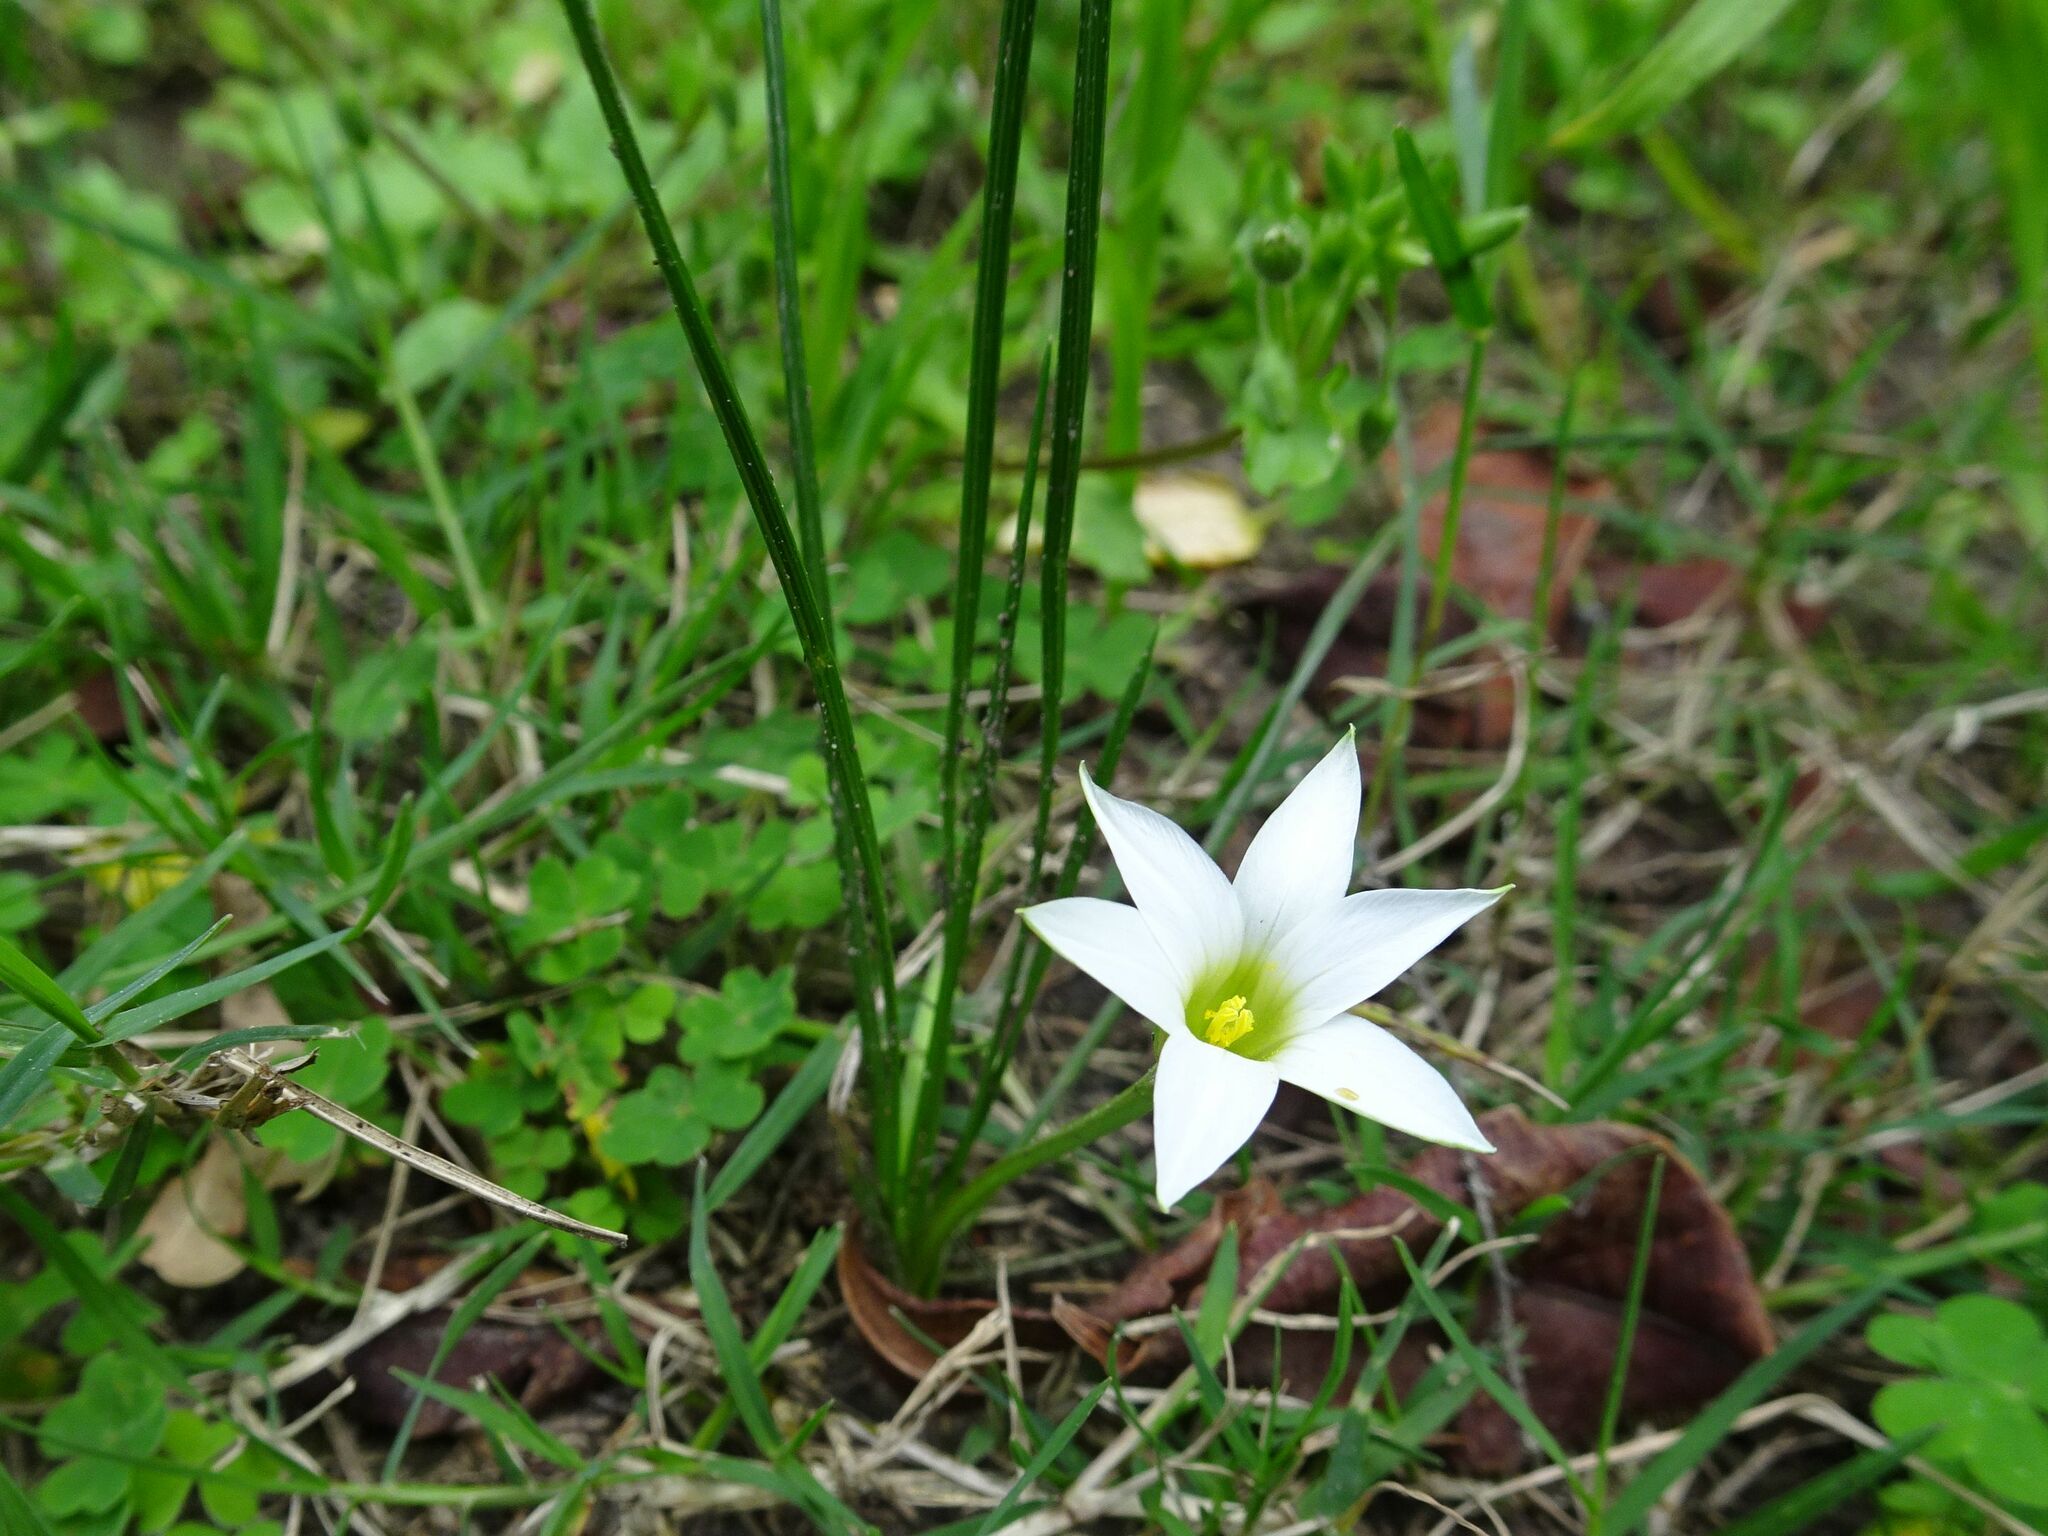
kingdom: Plantae
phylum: Tracheophyta
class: Liliopsida
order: Asparagales
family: Iridaceae
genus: Romulea
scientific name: Romulea flava
